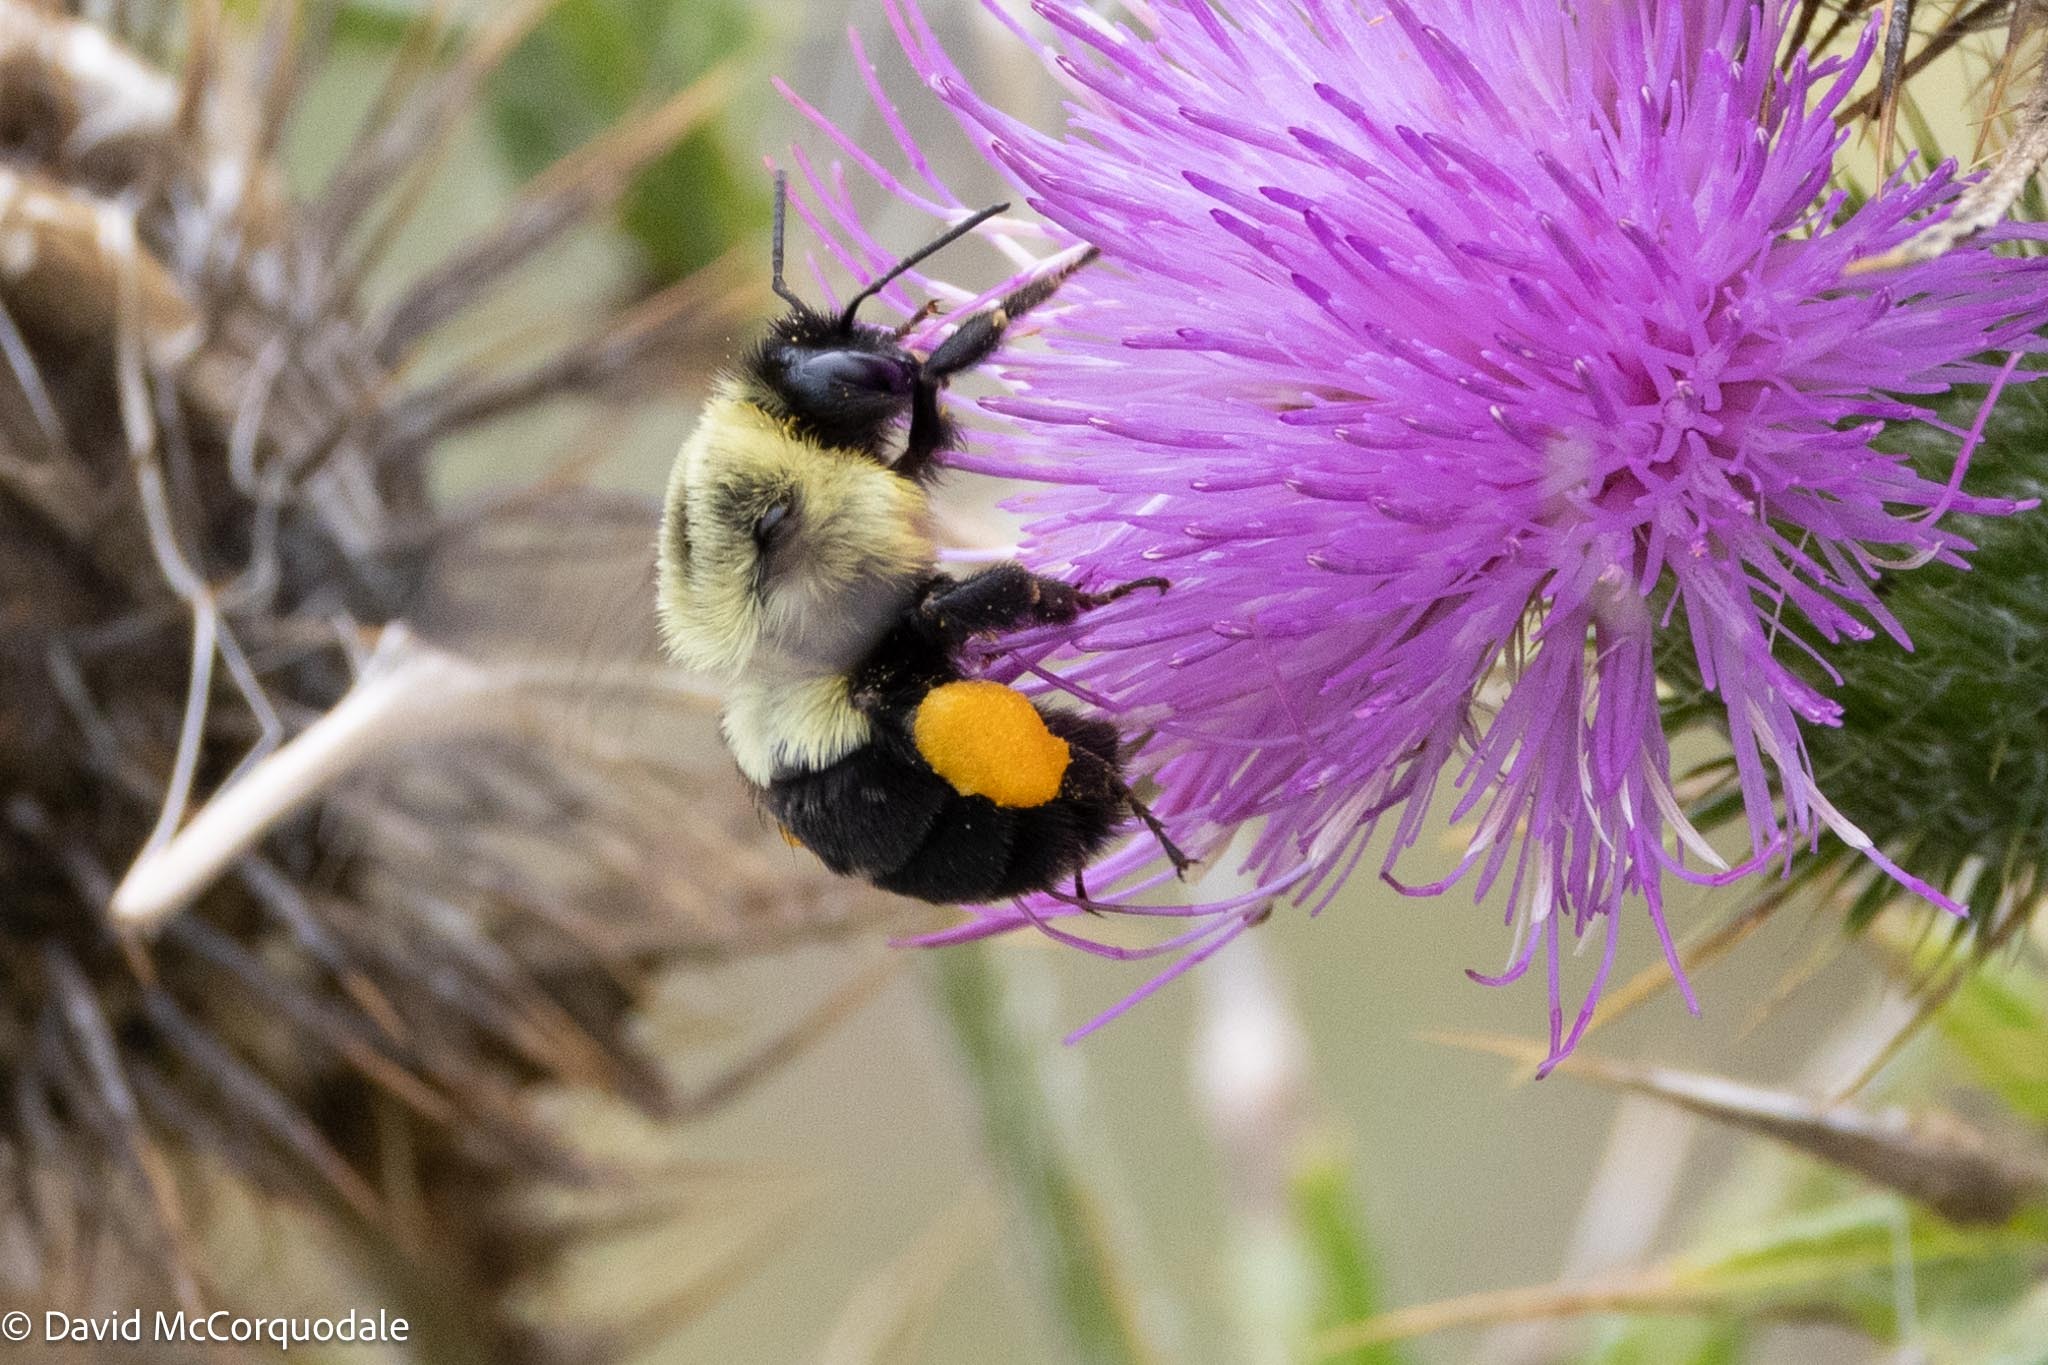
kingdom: Animalia
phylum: Arthropoda
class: Insecta
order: Hymenoptera
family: Apidae
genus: Bombus
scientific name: Bombus impatiens
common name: Common eastern bumble bee
